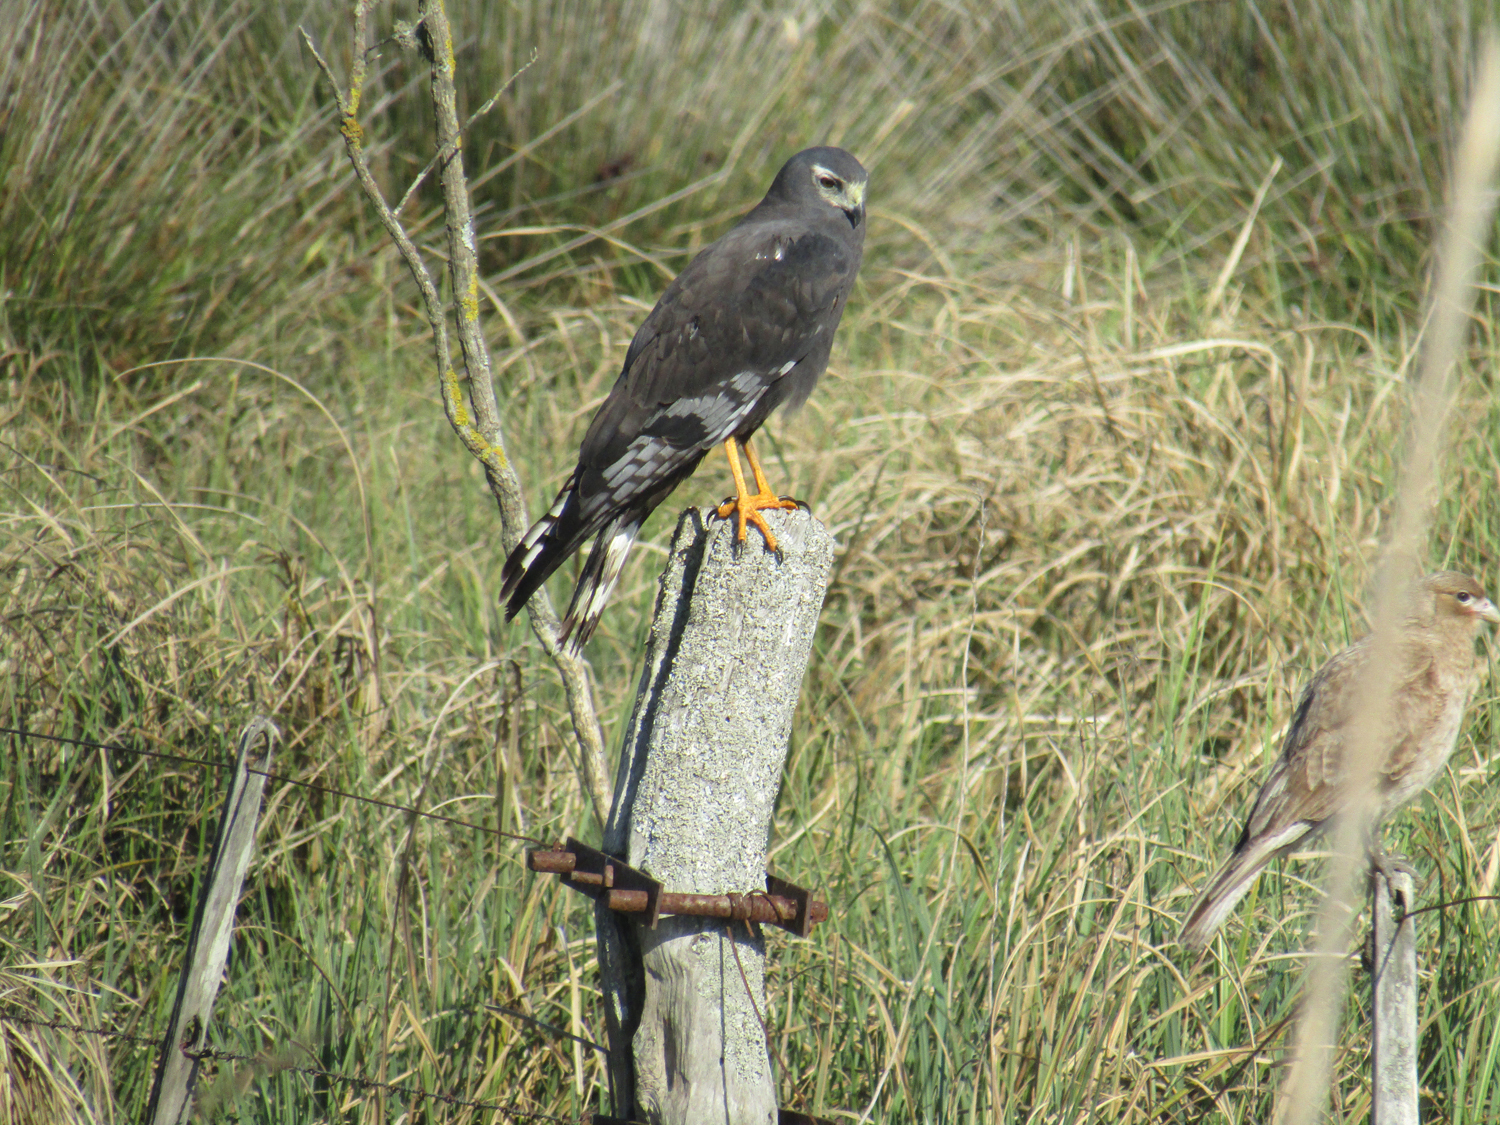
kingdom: Animalia
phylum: Chordata
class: Aves
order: Accipitriformes
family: Accipitridae
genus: Circus
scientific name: Circus buffoni
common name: Long-winged harrier
